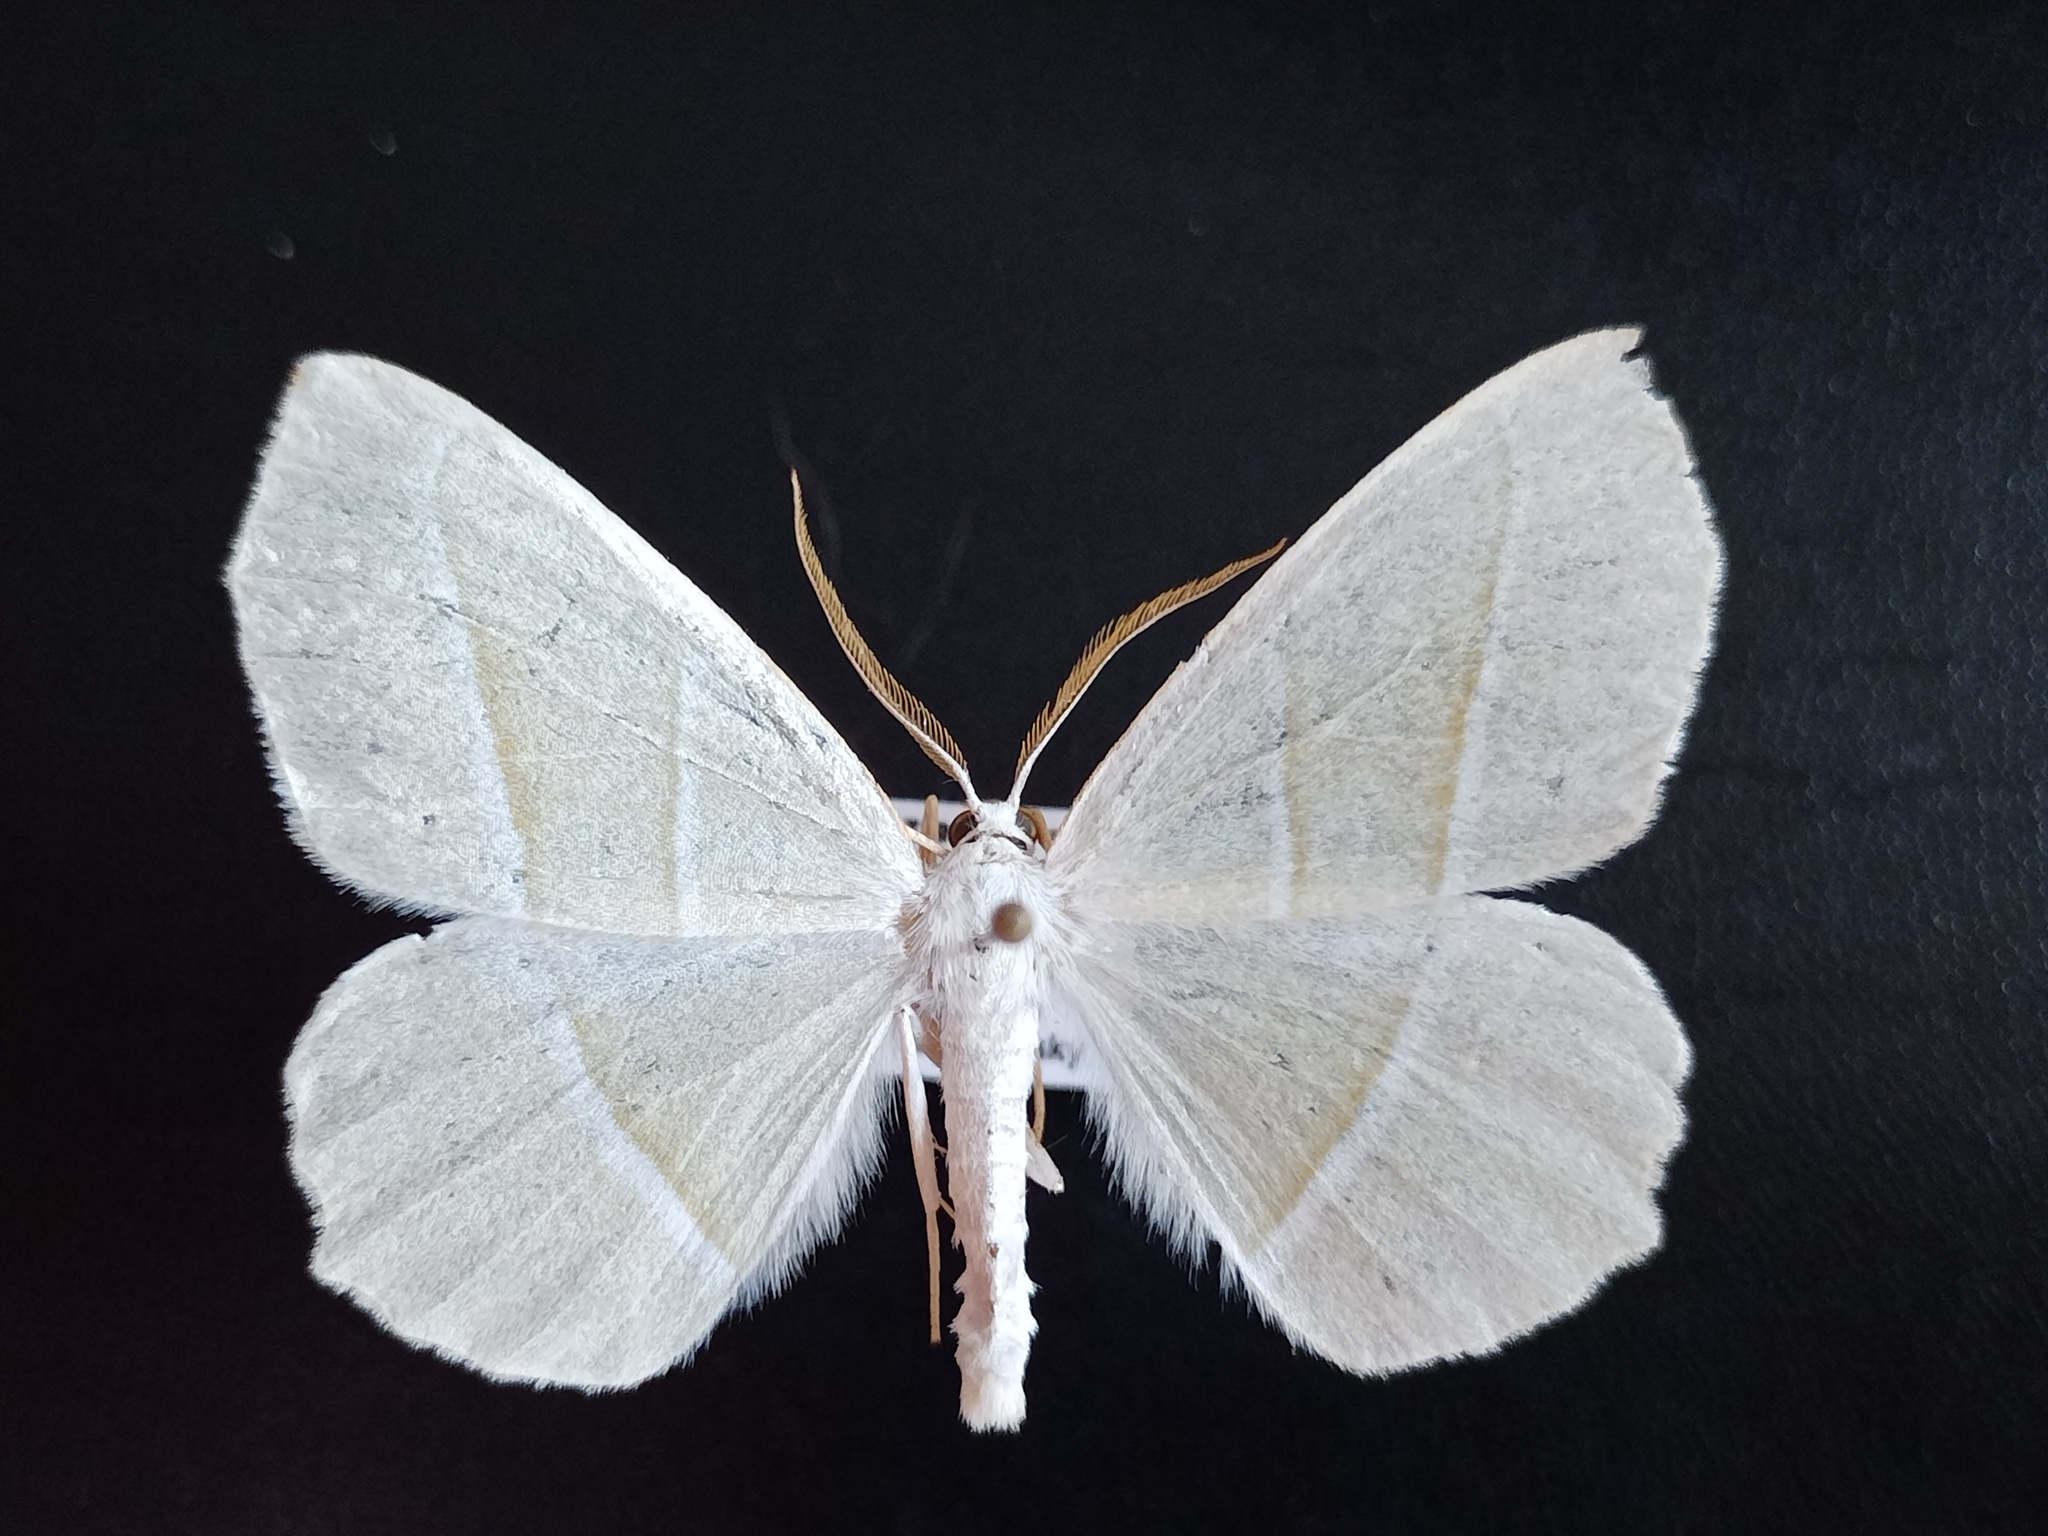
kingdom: Animalia
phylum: Arthropoda
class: Insecta
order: Lepidoptera
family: Geometridae
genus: Campaea
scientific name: Campaea margaritaria
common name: Light emerald
